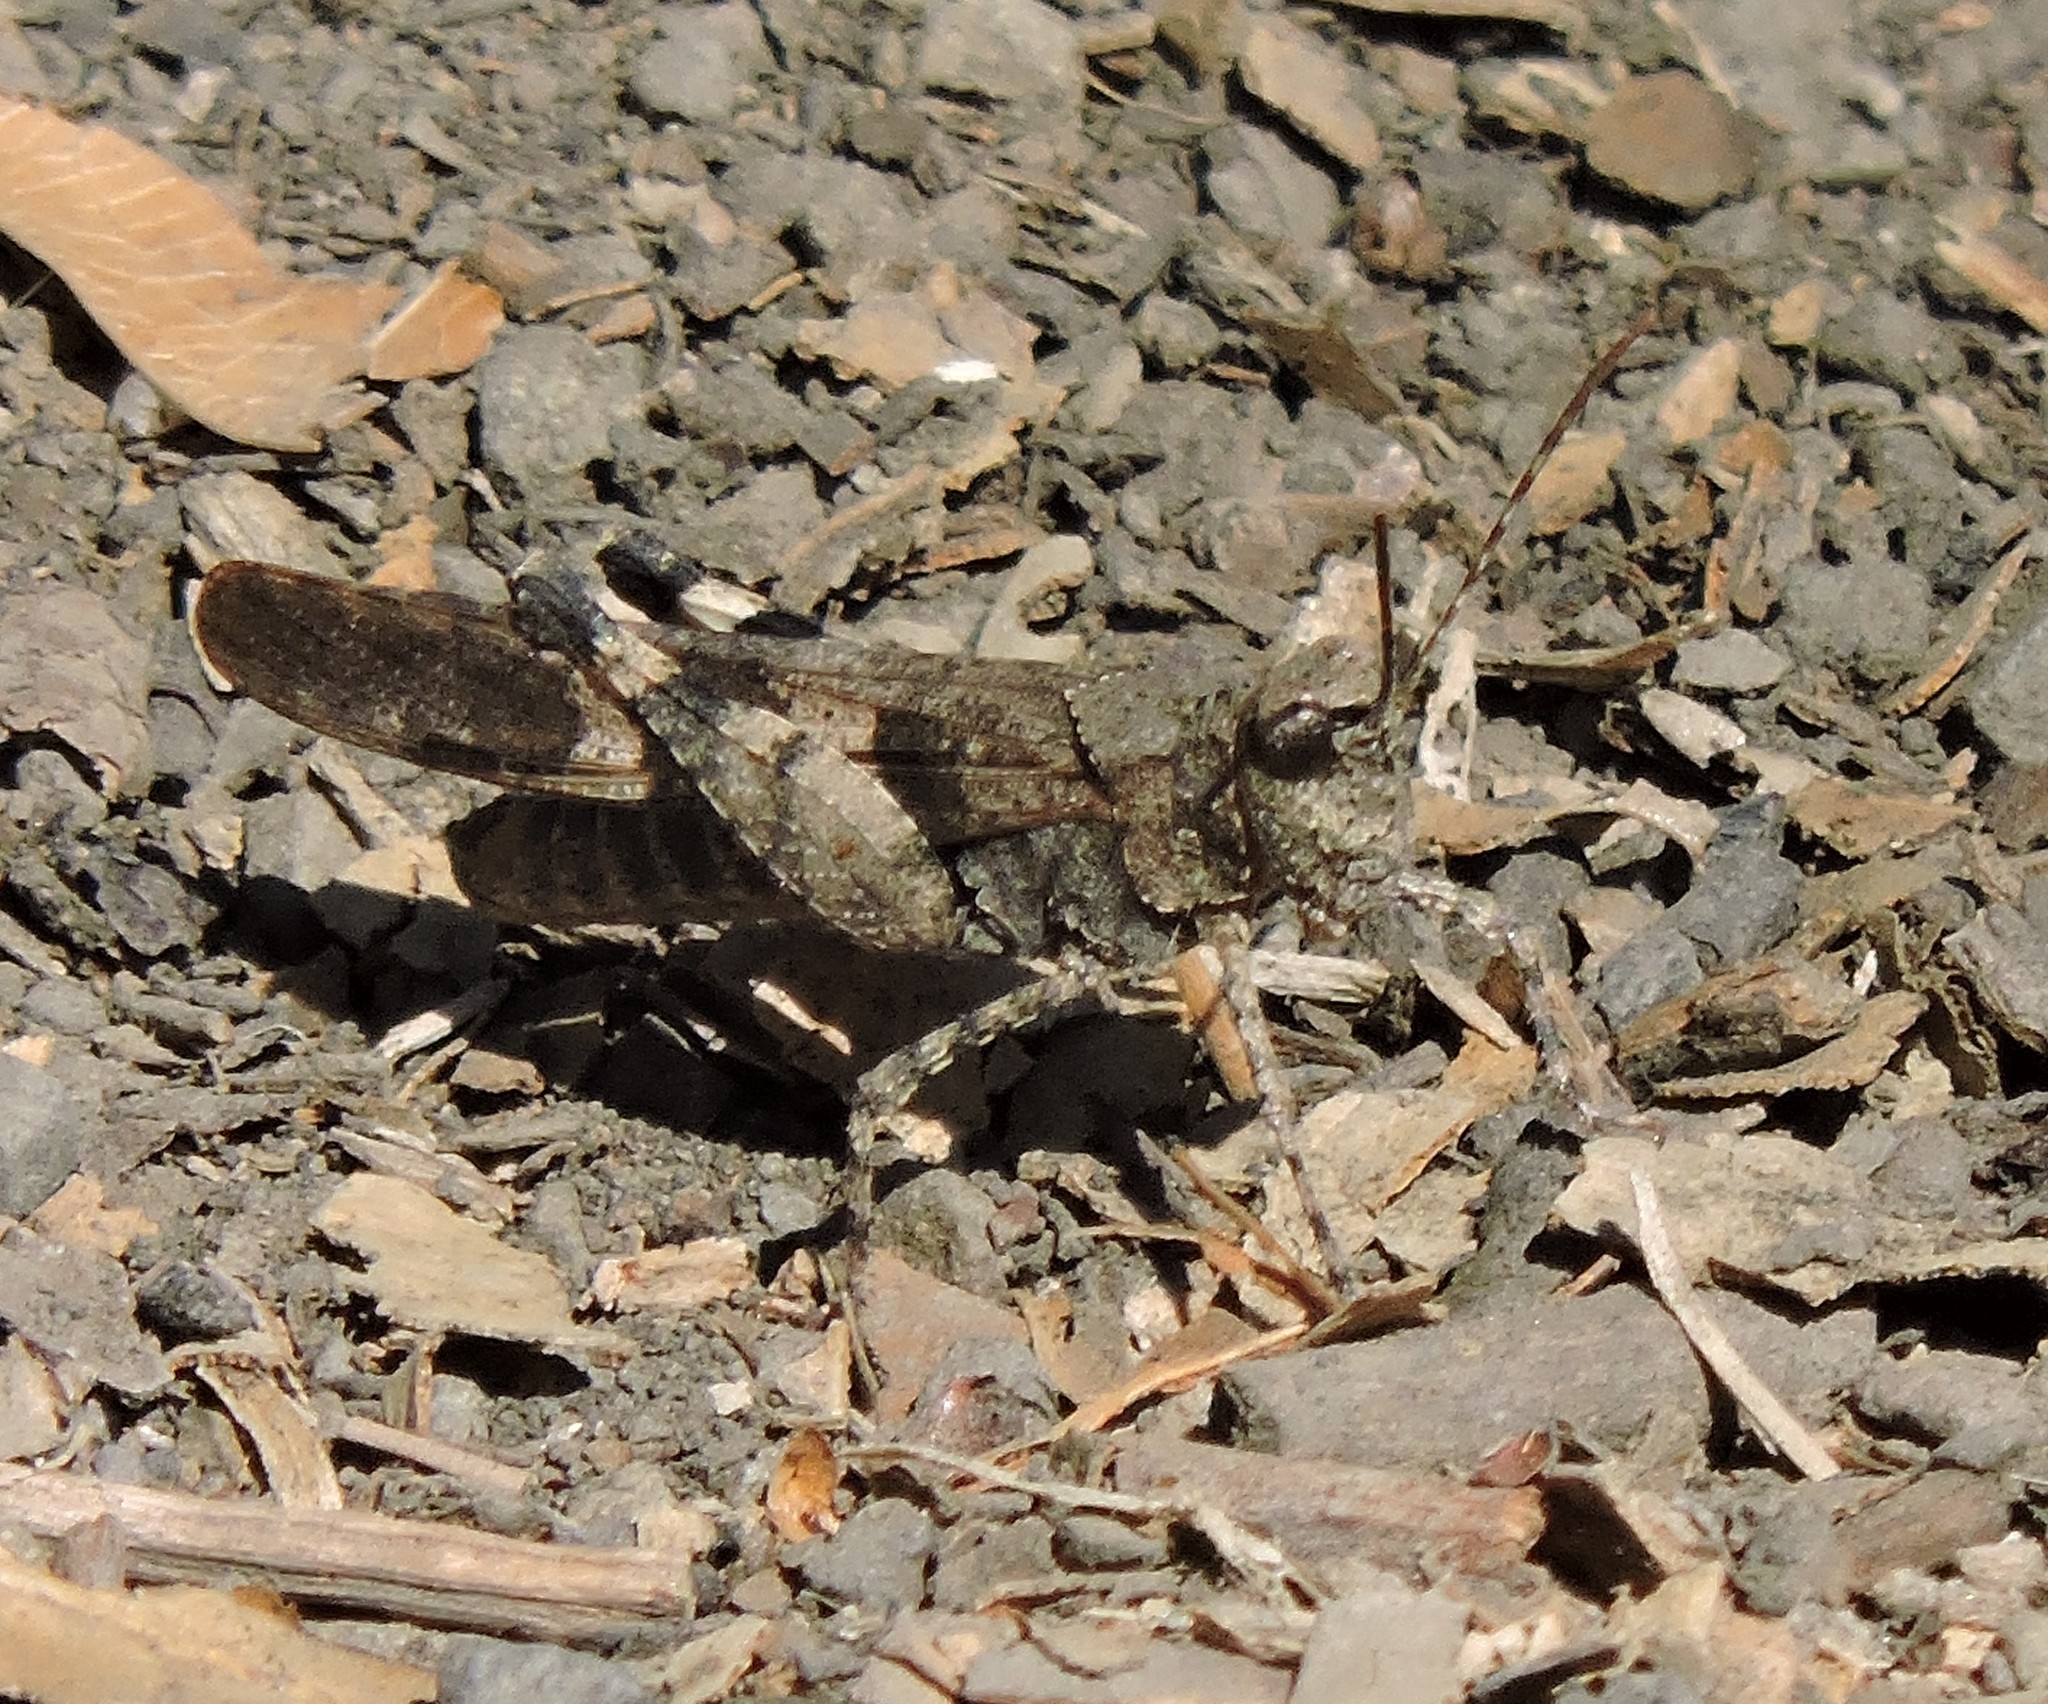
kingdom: Animalia
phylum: Arthropoda
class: Insecta
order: Orthoptera
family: Acrididae
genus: Trimerotropis
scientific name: Trimerotropis fontana
